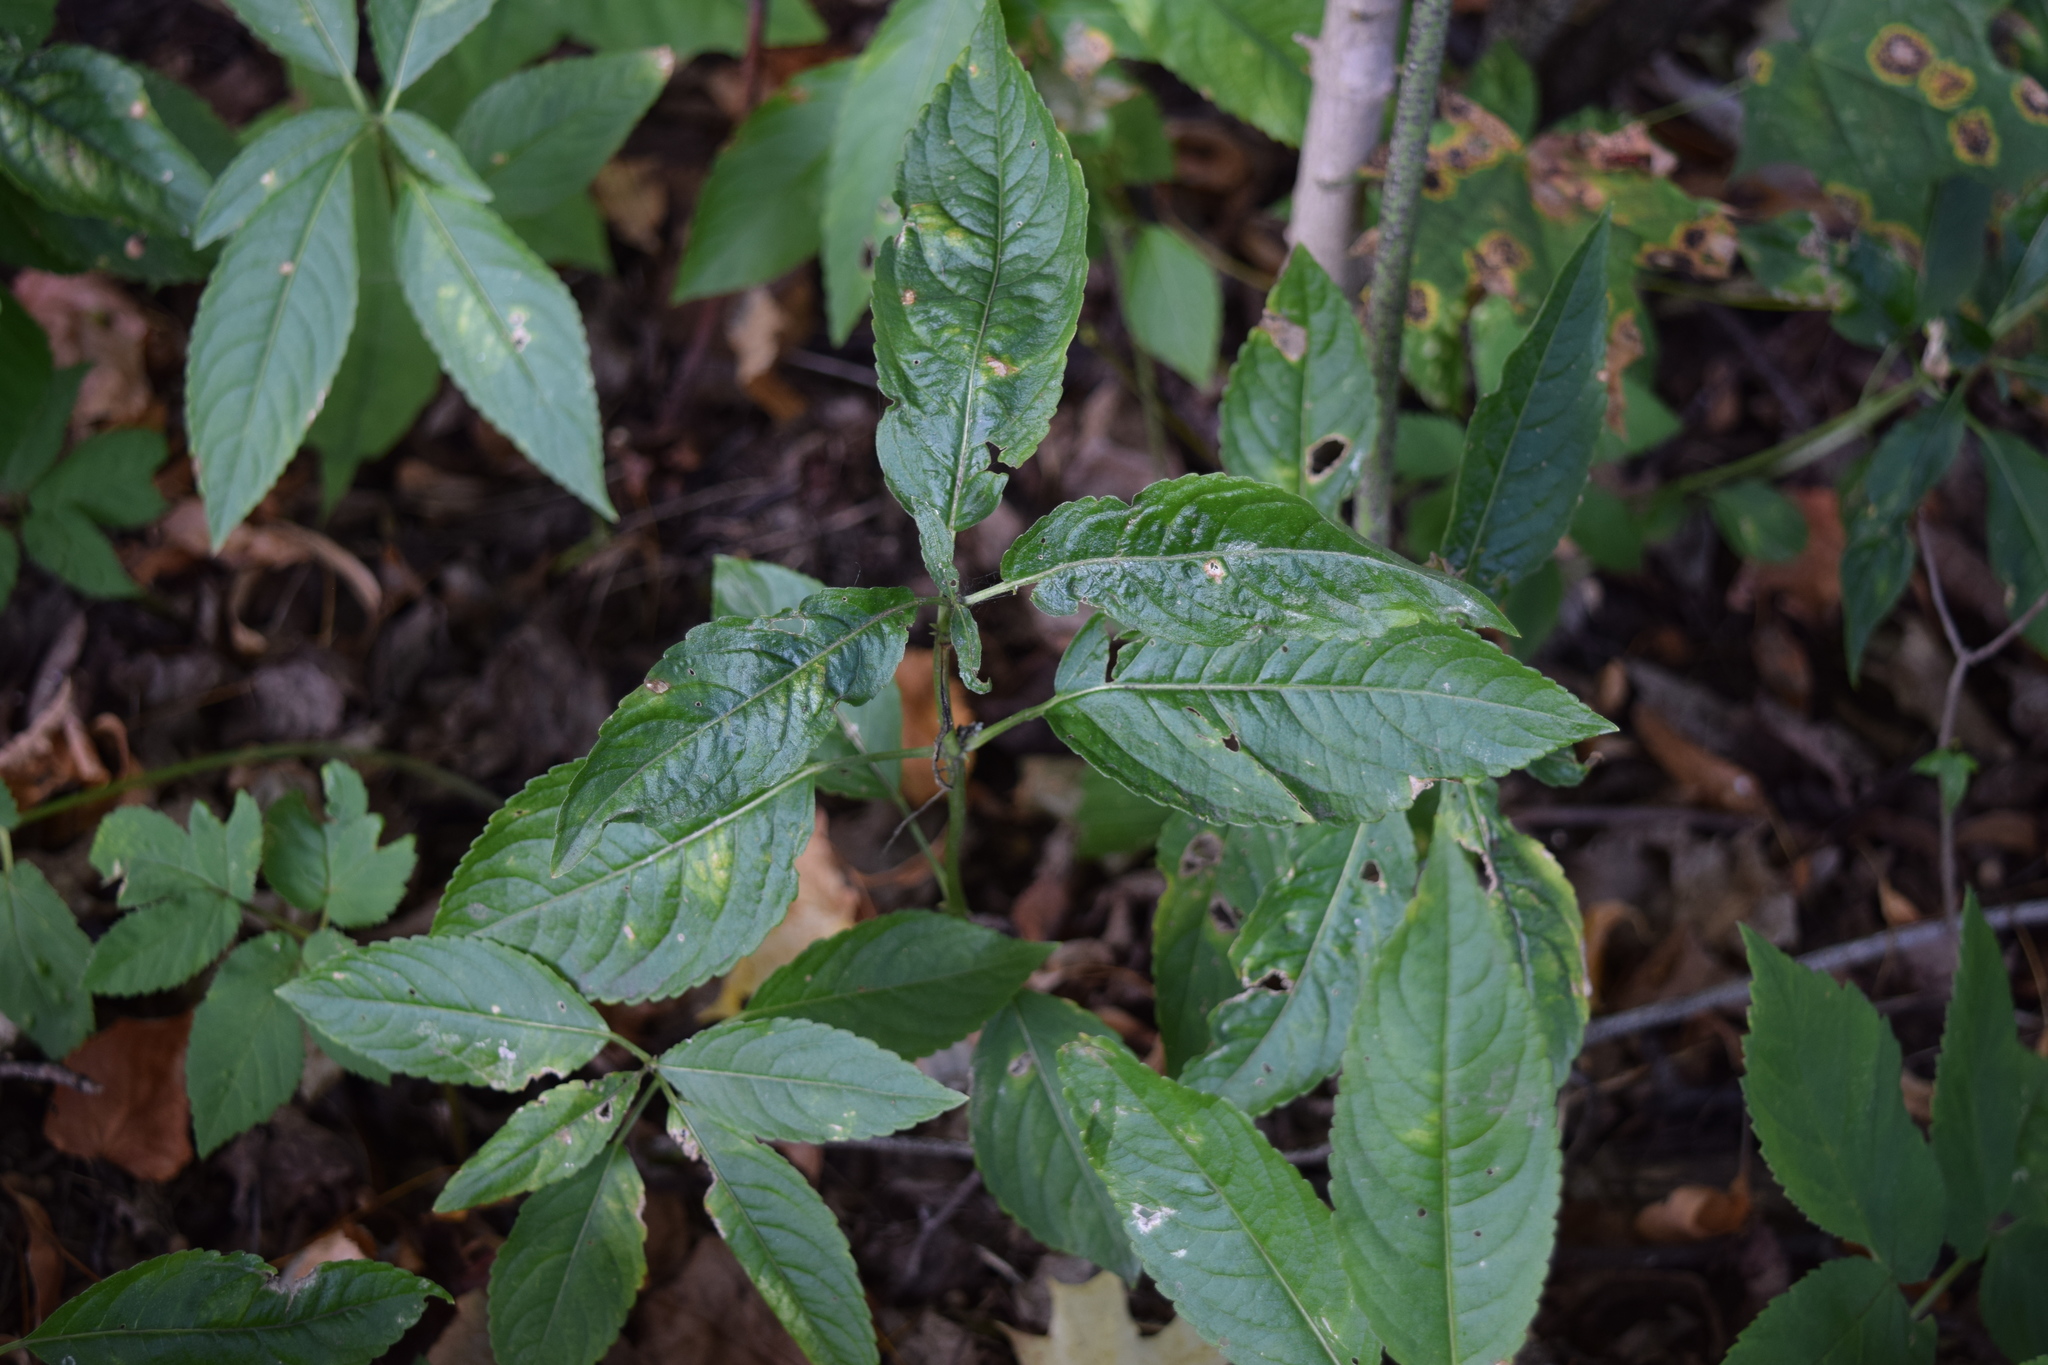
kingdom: Plantae
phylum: Tracheophyta
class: Magnoliopsida
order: Malpighiales
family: Euphorbiaceae
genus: Mercurialis
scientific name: Mercurialis perennis
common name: Dog mercury
